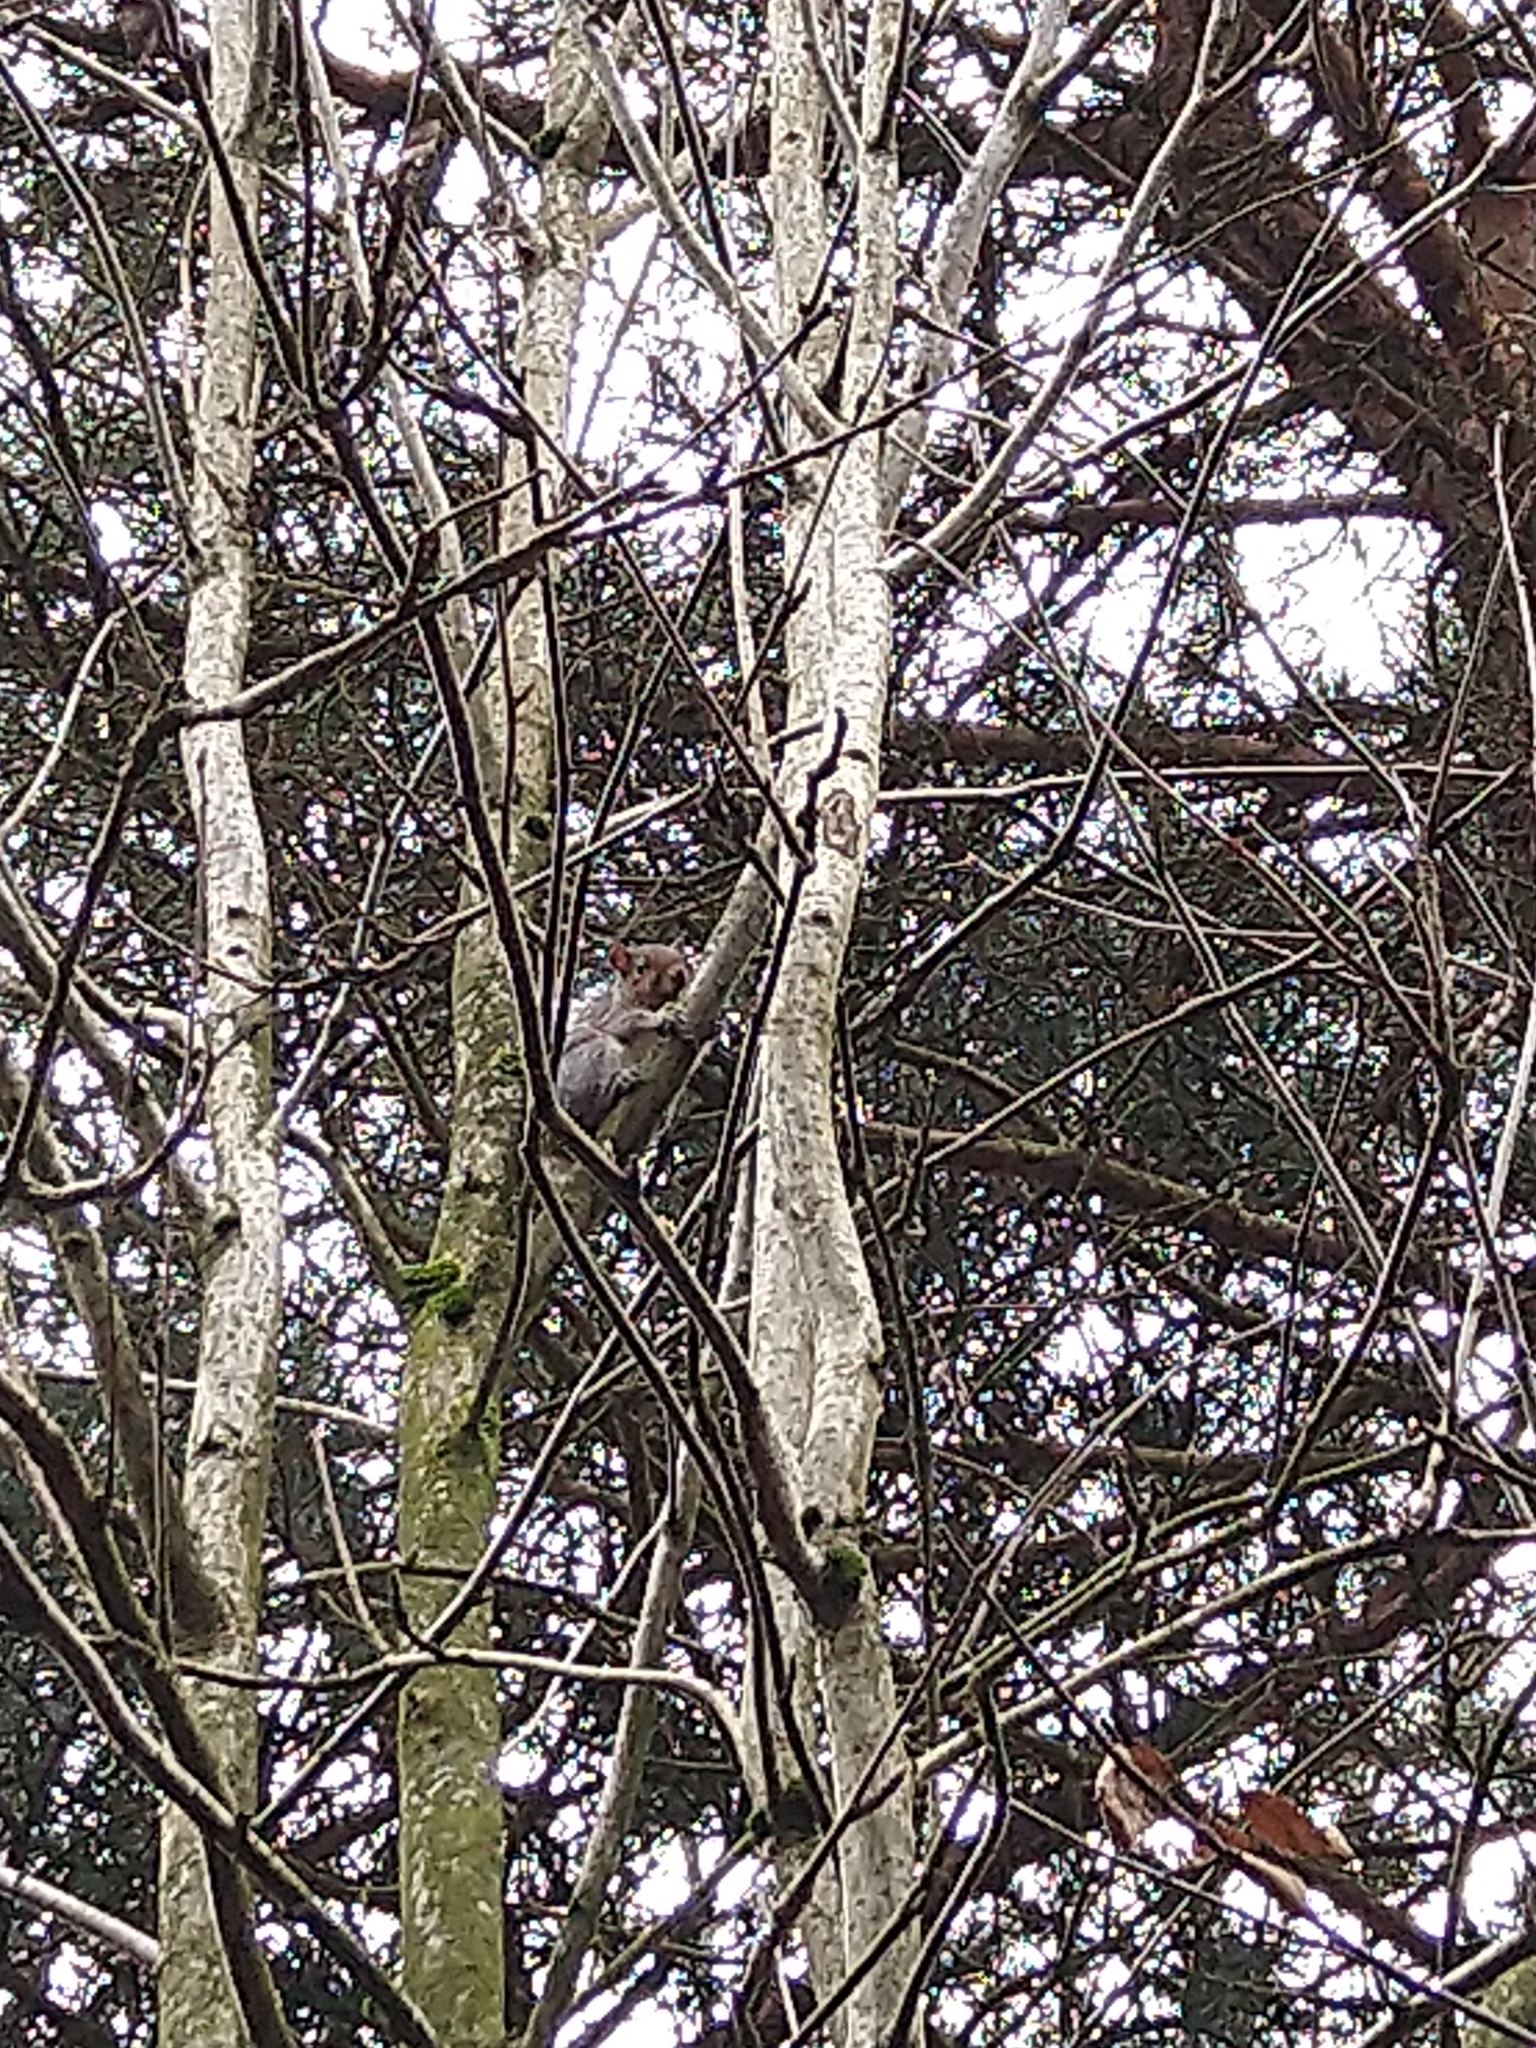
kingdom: Animalia
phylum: Chordata
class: Mammalia
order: Rodentia
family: Sciuridae
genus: Sciurus
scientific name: Sciurus carolinensis
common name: Eastern gray squirrel
